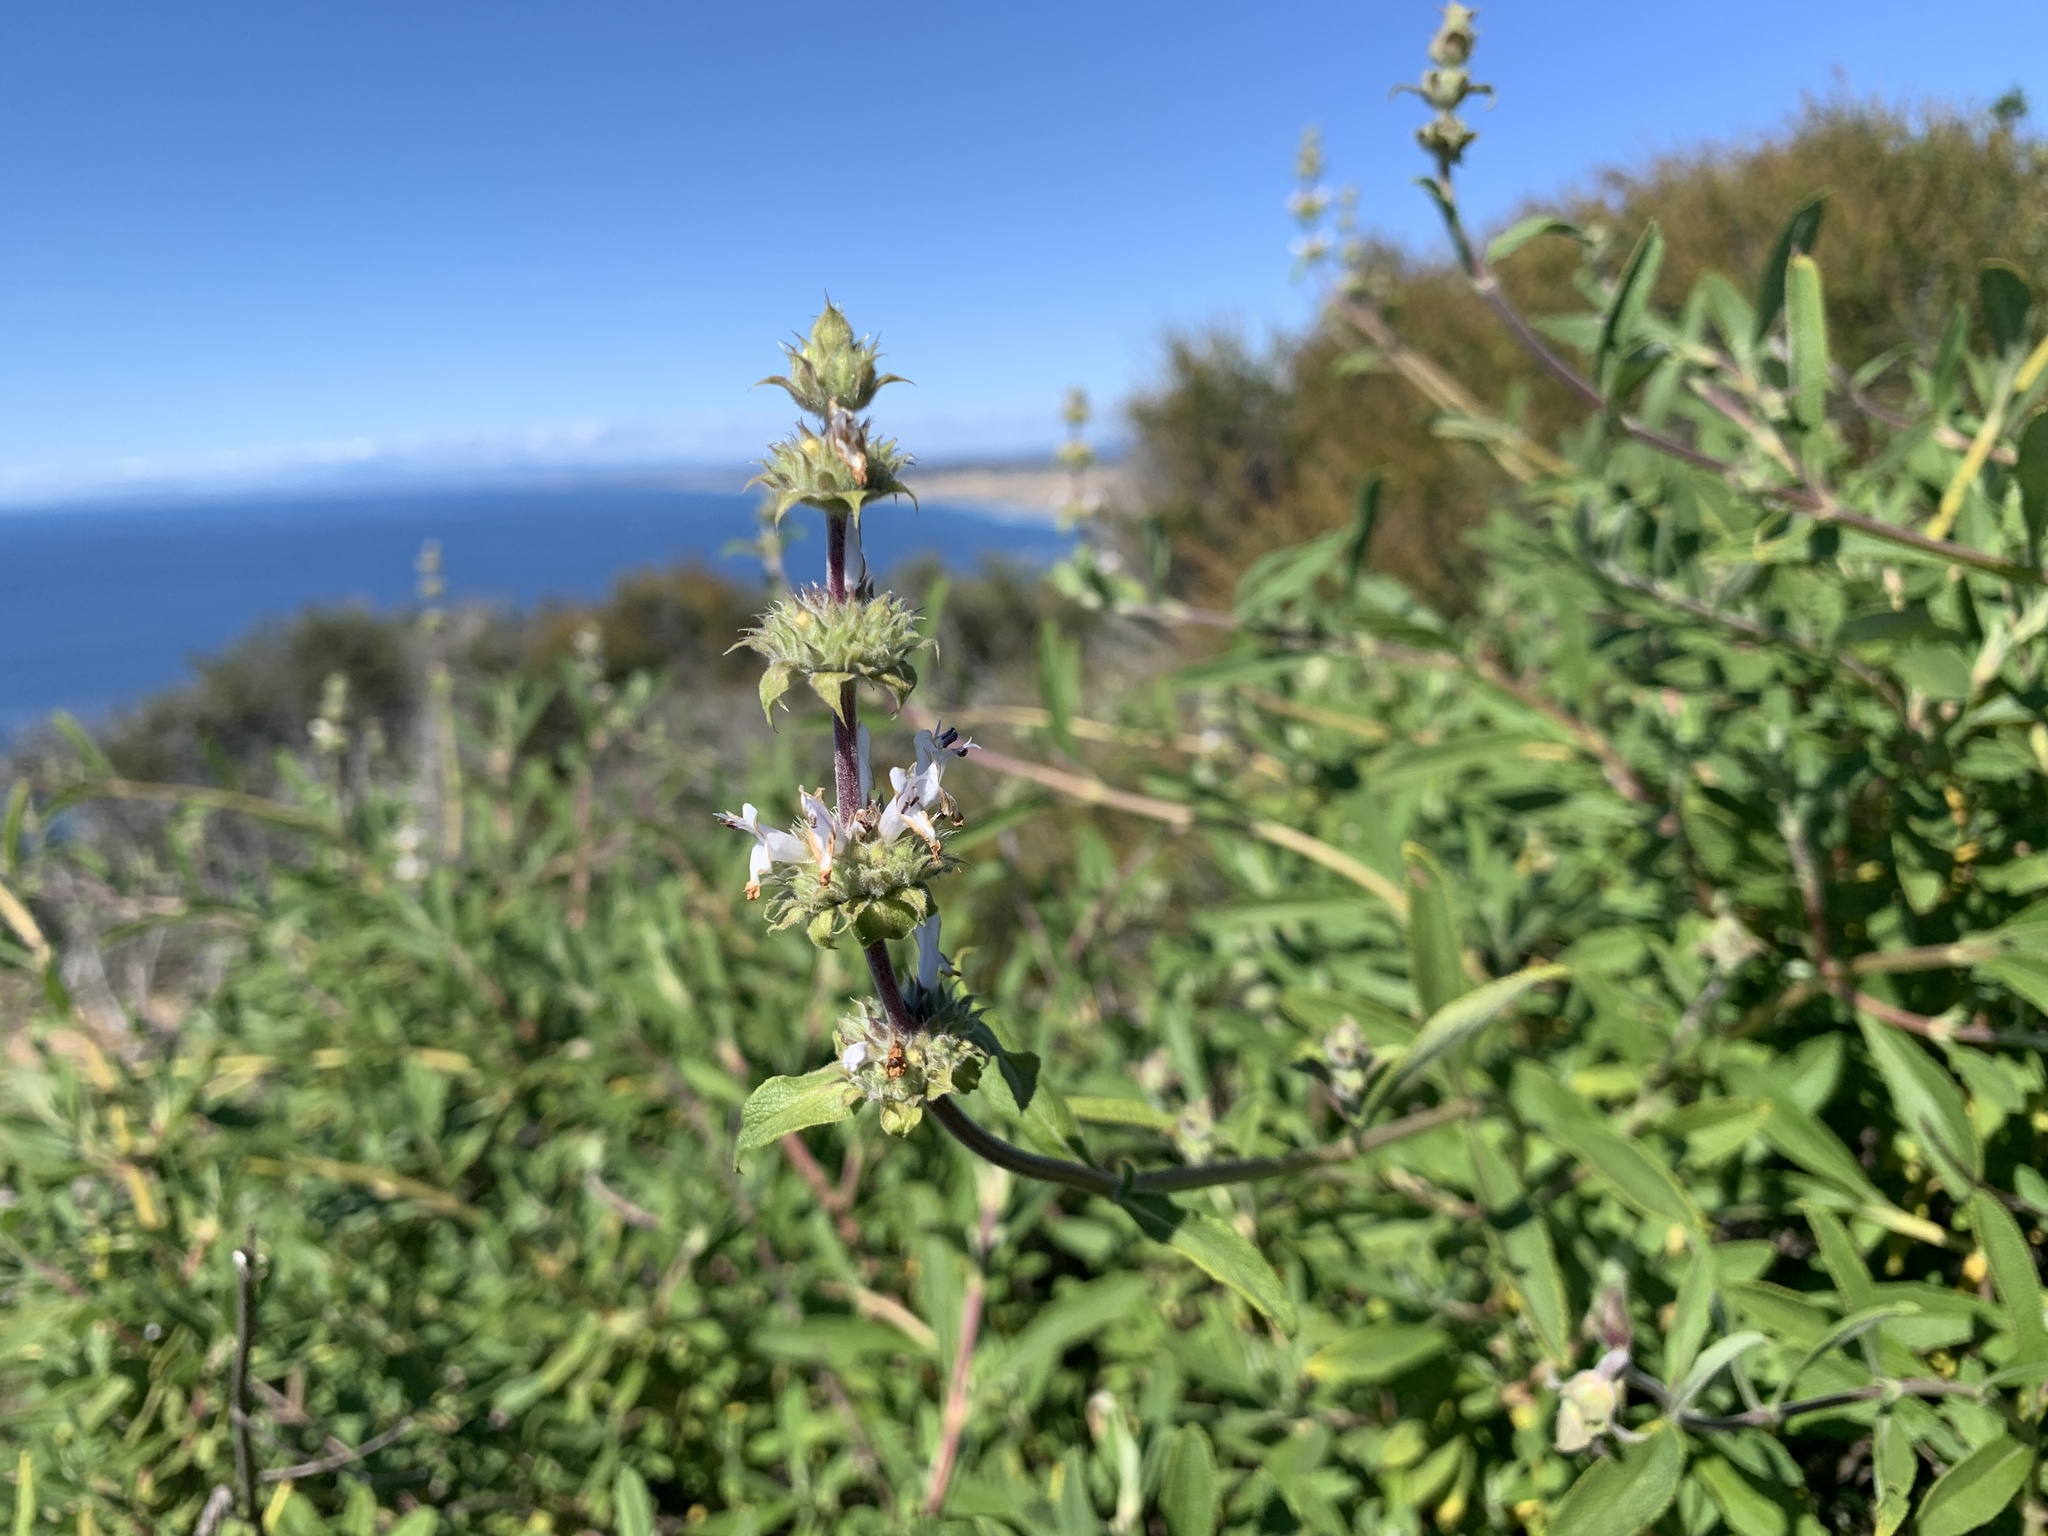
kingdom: Plantae
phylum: Tracheophyta
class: Magnoliopsida
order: Lamiales
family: Lamiaceae
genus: Salvia
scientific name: Salvia mellifera
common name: Black sage
